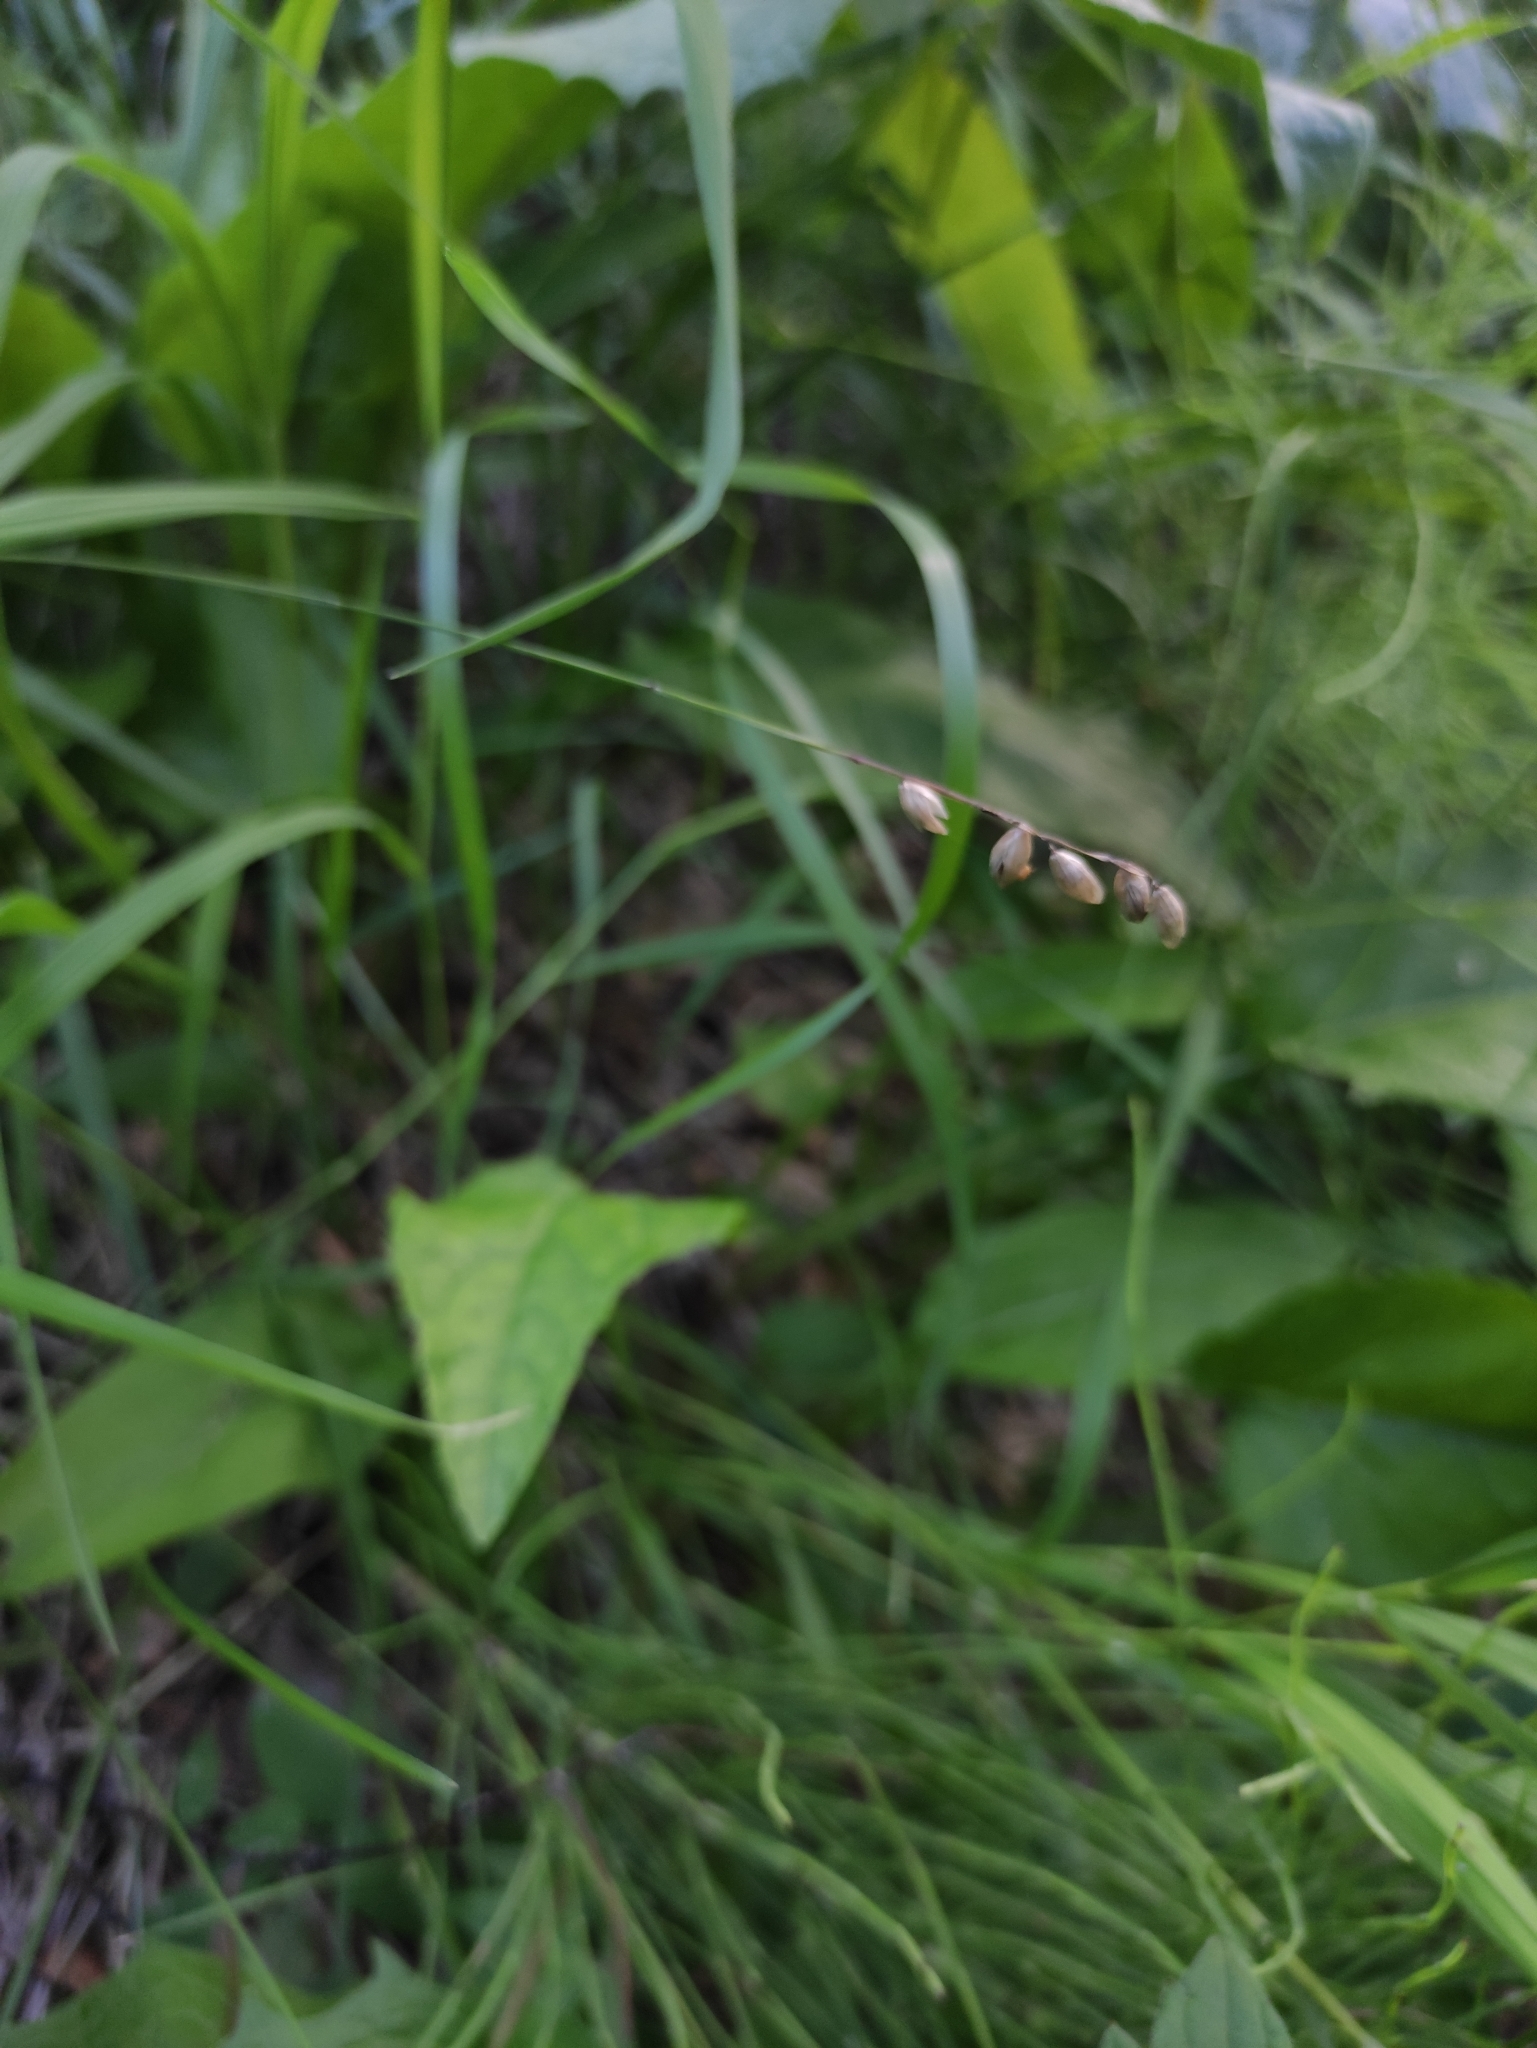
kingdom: Plantae
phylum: Tracheophyta
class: Liliopsida
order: Poales
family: Poaceae
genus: Melica
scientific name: Melica nutans
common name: Mountain melick
